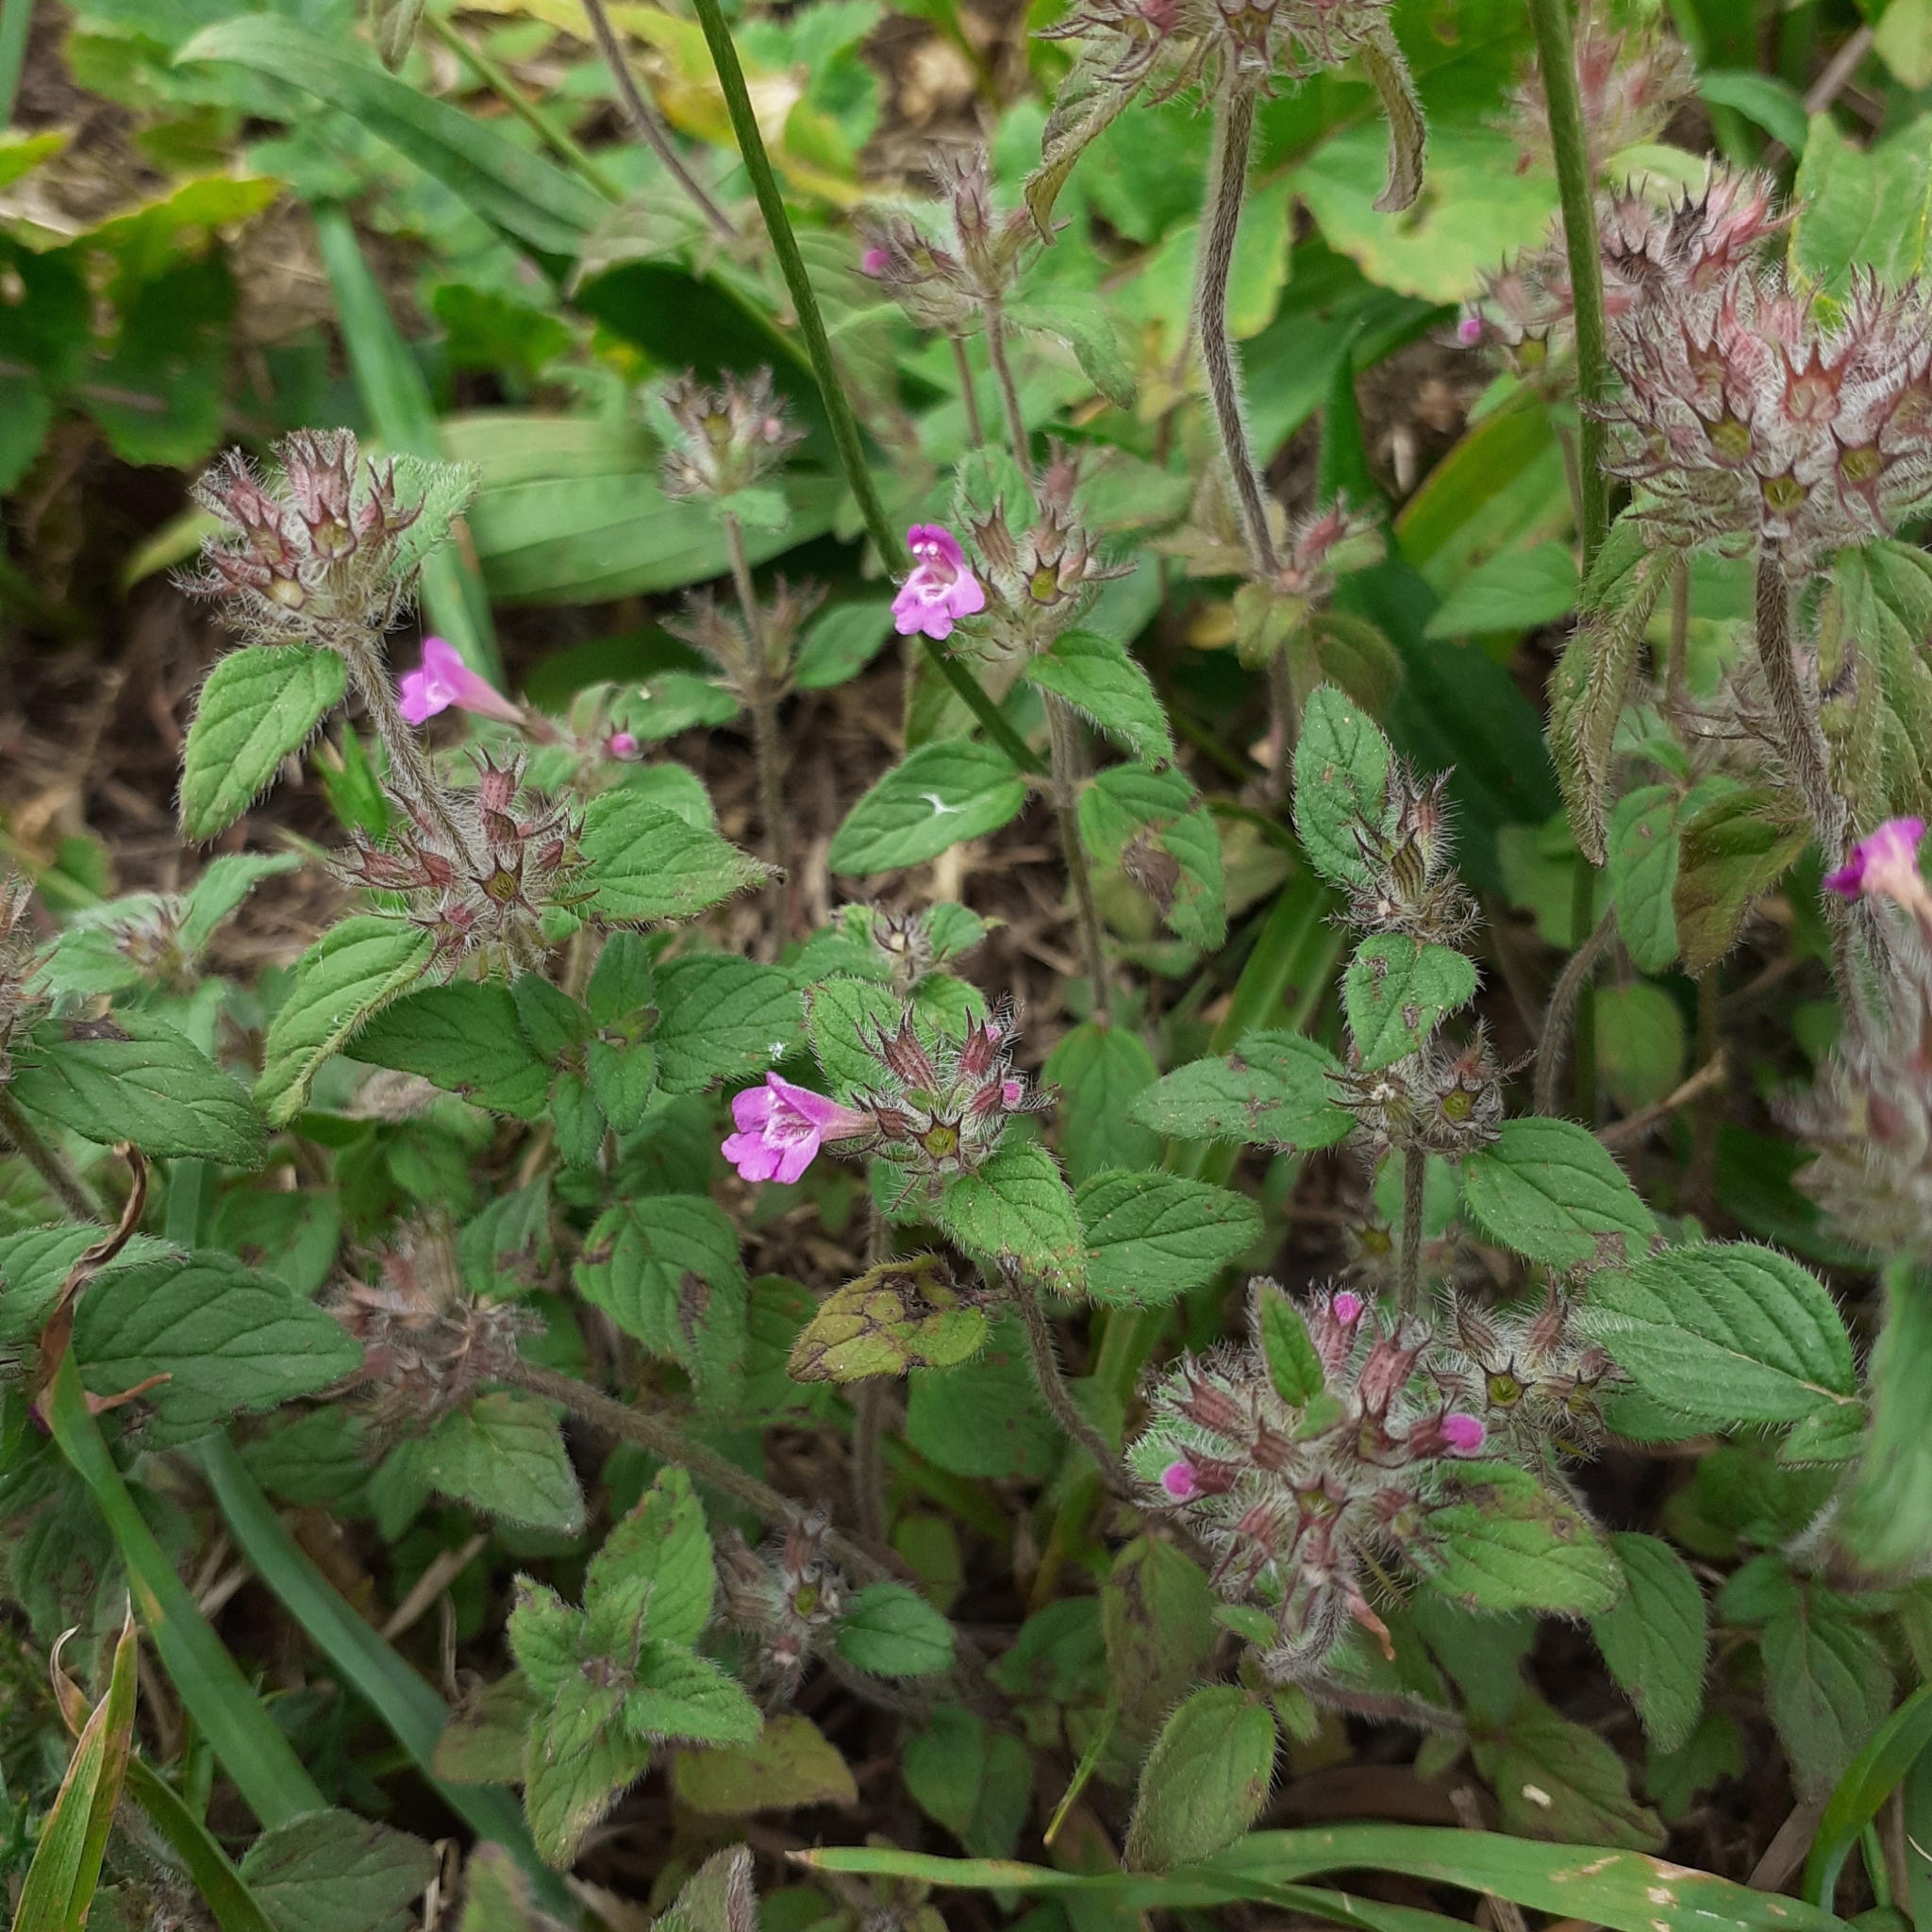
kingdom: Plantae
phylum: Tracheophyta
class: Magnoliopsida
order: Lamiales
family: Lamiaceae
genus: Clinopodium
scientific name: Clinopodium vulgare
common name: Wild basil
